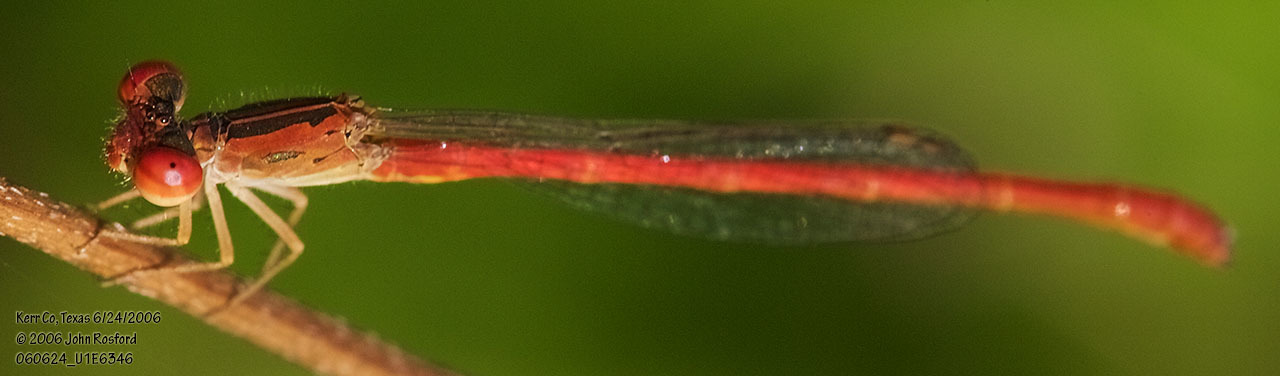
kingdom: Animalia
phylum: Arthropoda
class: Insecta
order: Odonata
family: Coenagrionidae
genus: Telebasis
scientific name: Telebasis salva
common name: Desert firetail
